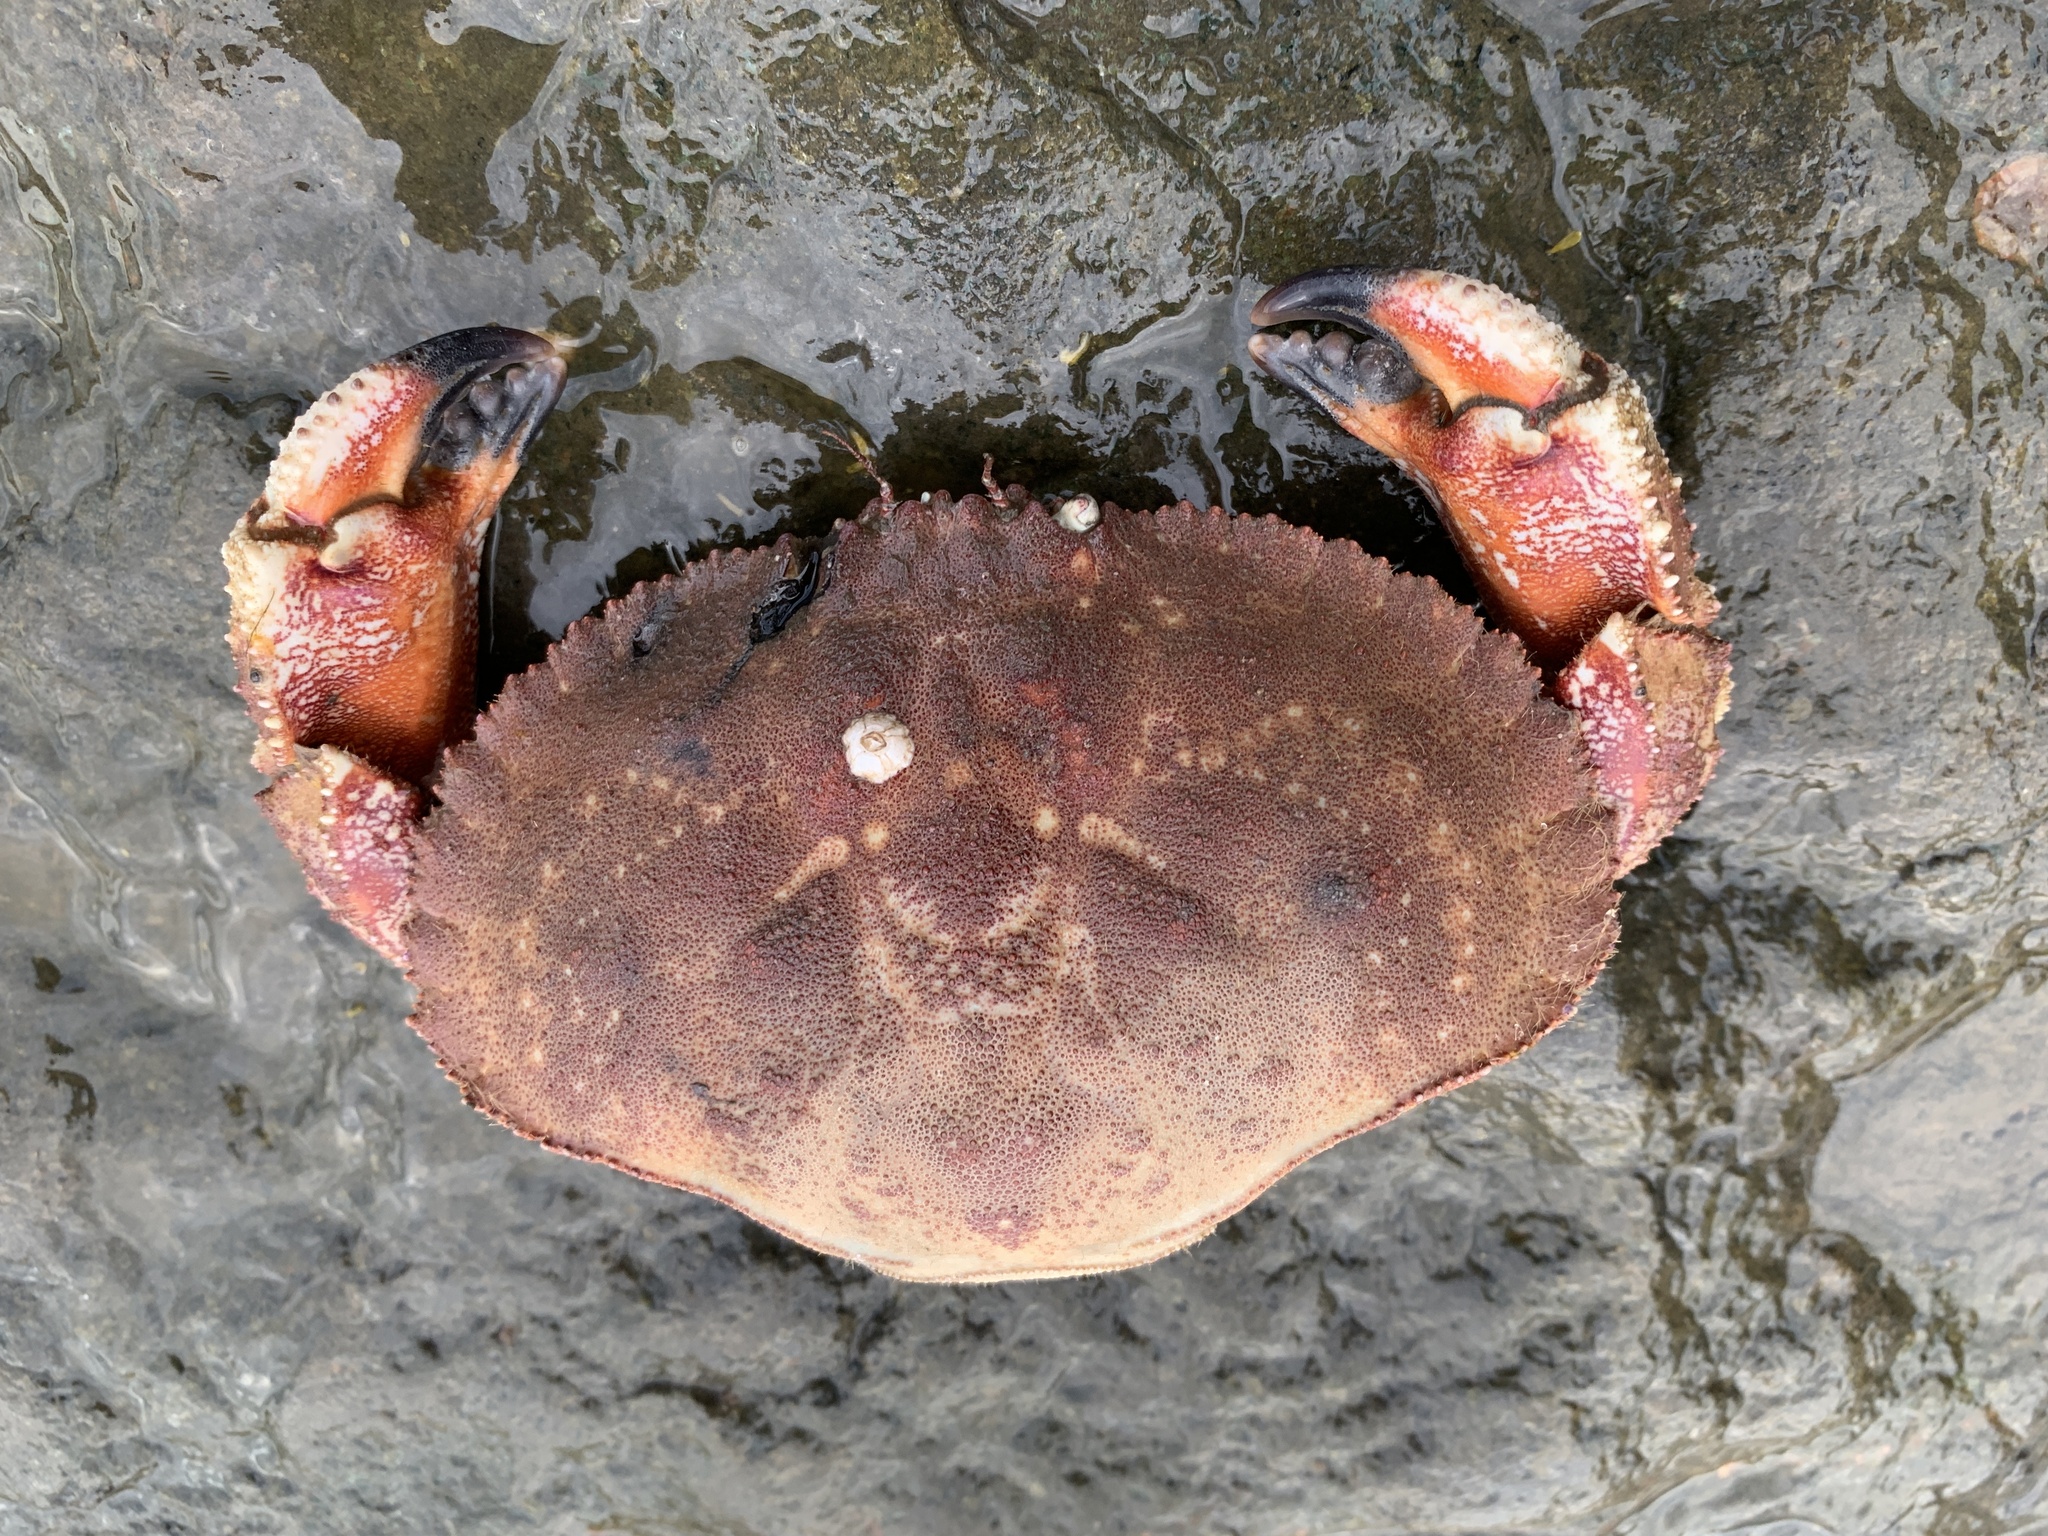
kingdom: Animalia
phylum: Arthropoda
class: Malacostraca
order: Decapoda
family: Cancridae
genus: Cancer
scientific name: Cancer borealis
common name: Jonah crab
